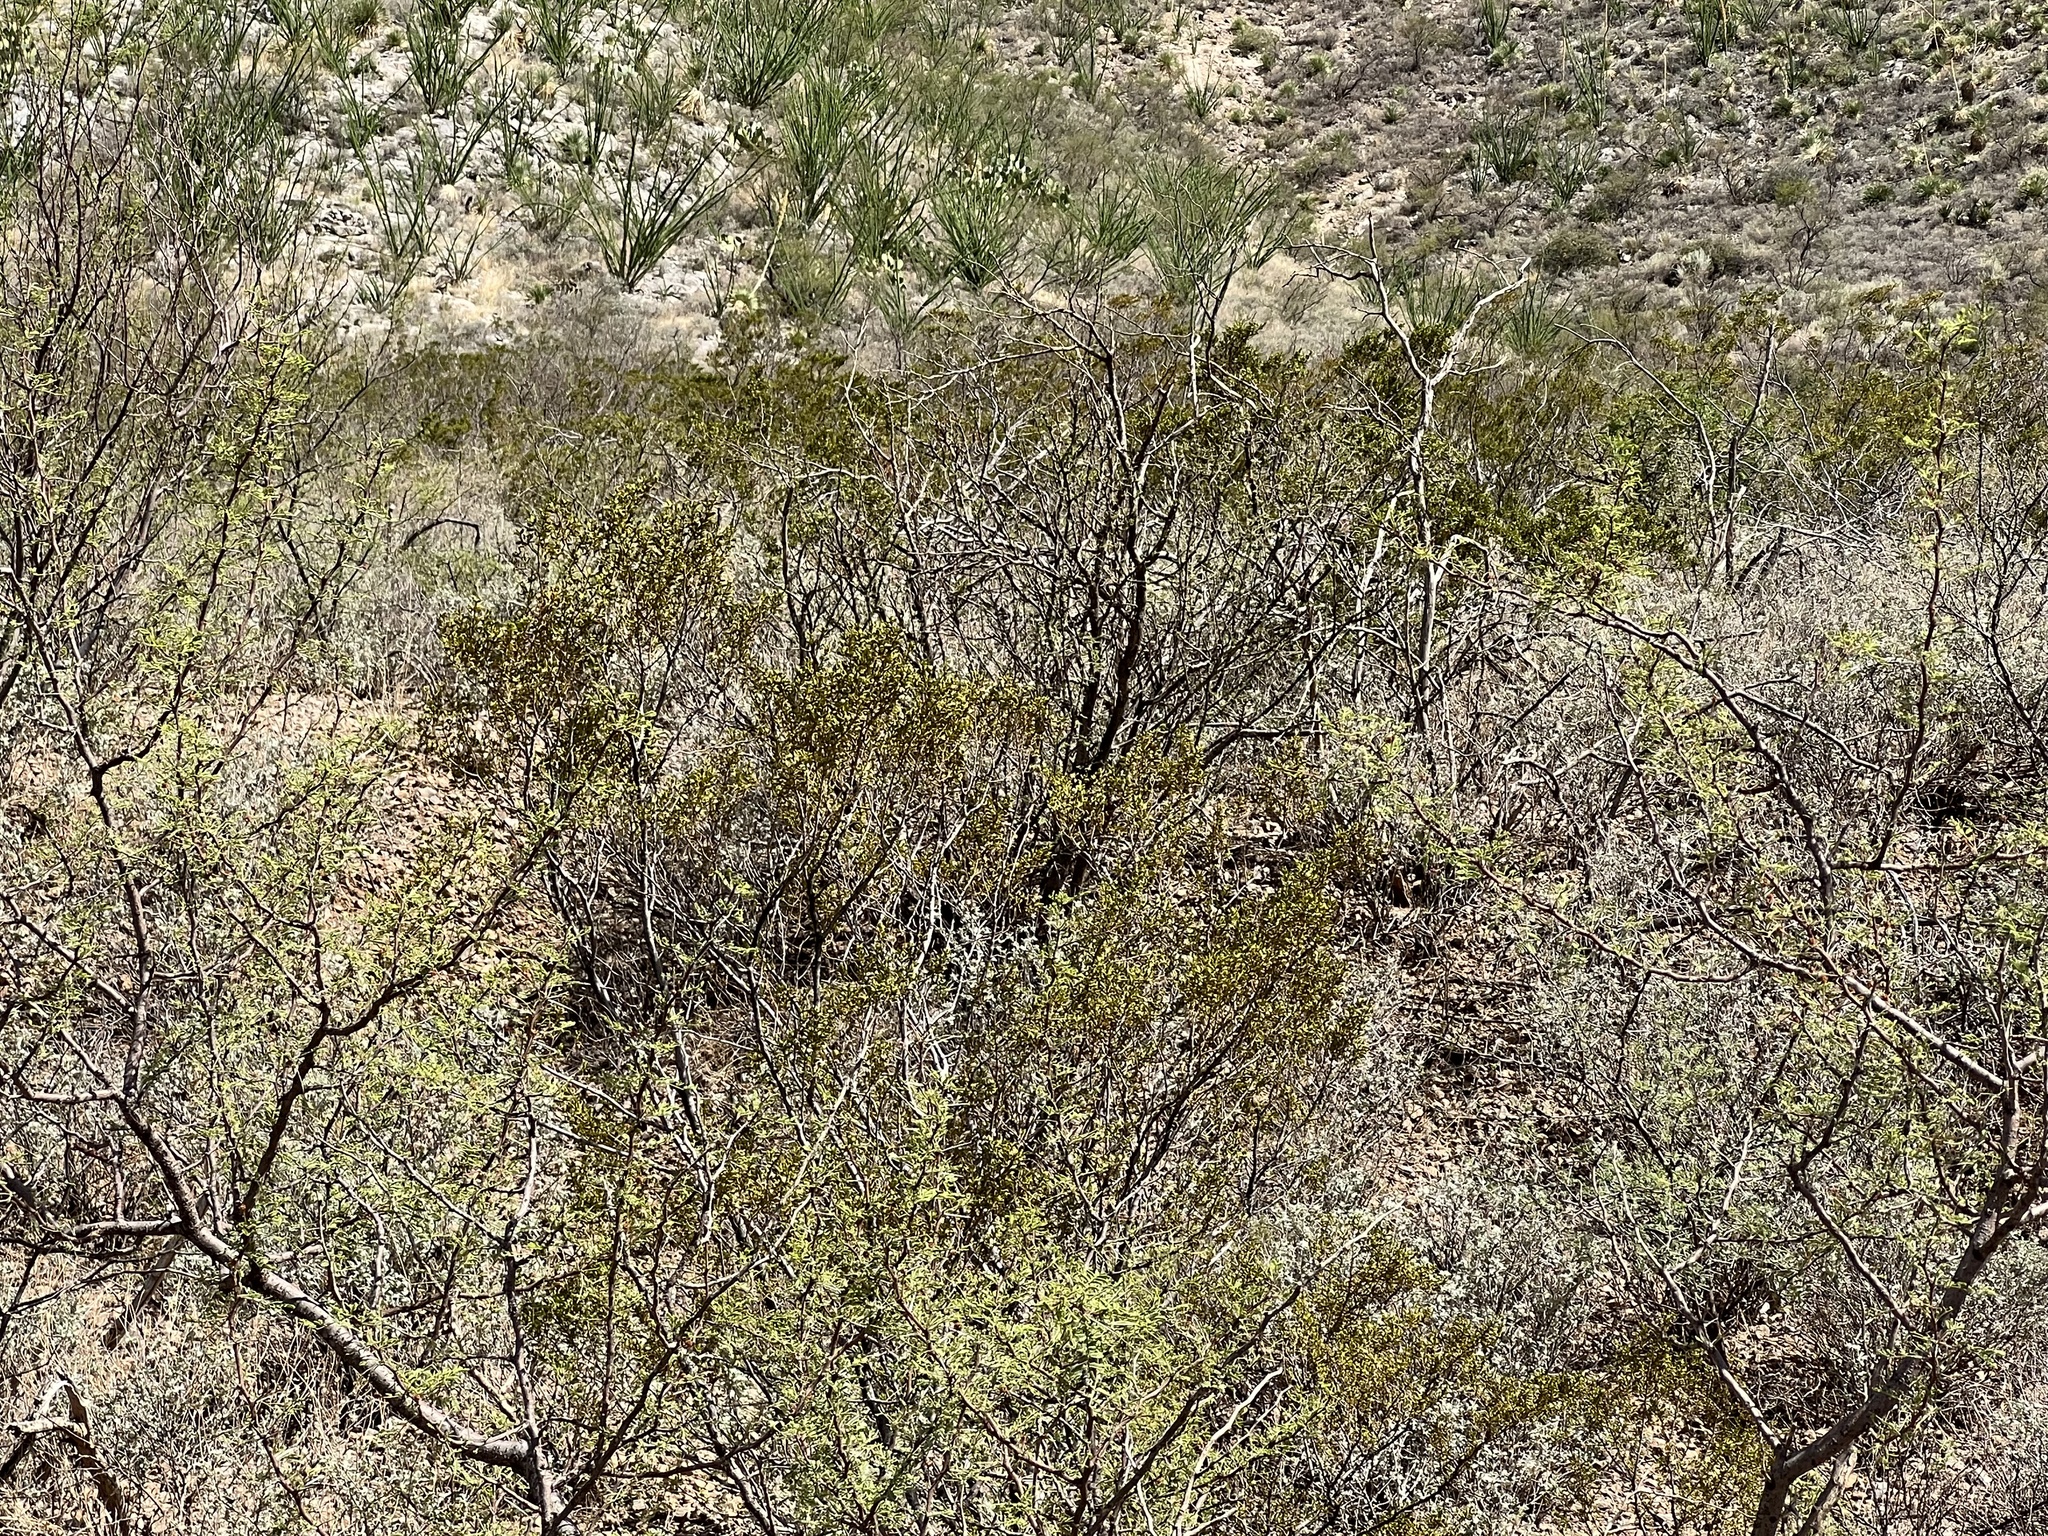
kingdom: Plantae
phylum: Tracheophyta
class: Magnoliopsida
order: Zygophyllales
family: Zygophyllaceae
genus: Larrea
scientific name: Larrea tridentata
